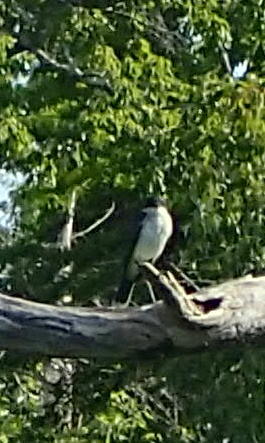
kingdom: Animalia
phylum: Chordata
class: Aves
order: Passeriformes
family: Tyrannidae
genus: Tyrannus
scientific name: Tyrannus tyrannus
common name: Eastern kingbird
